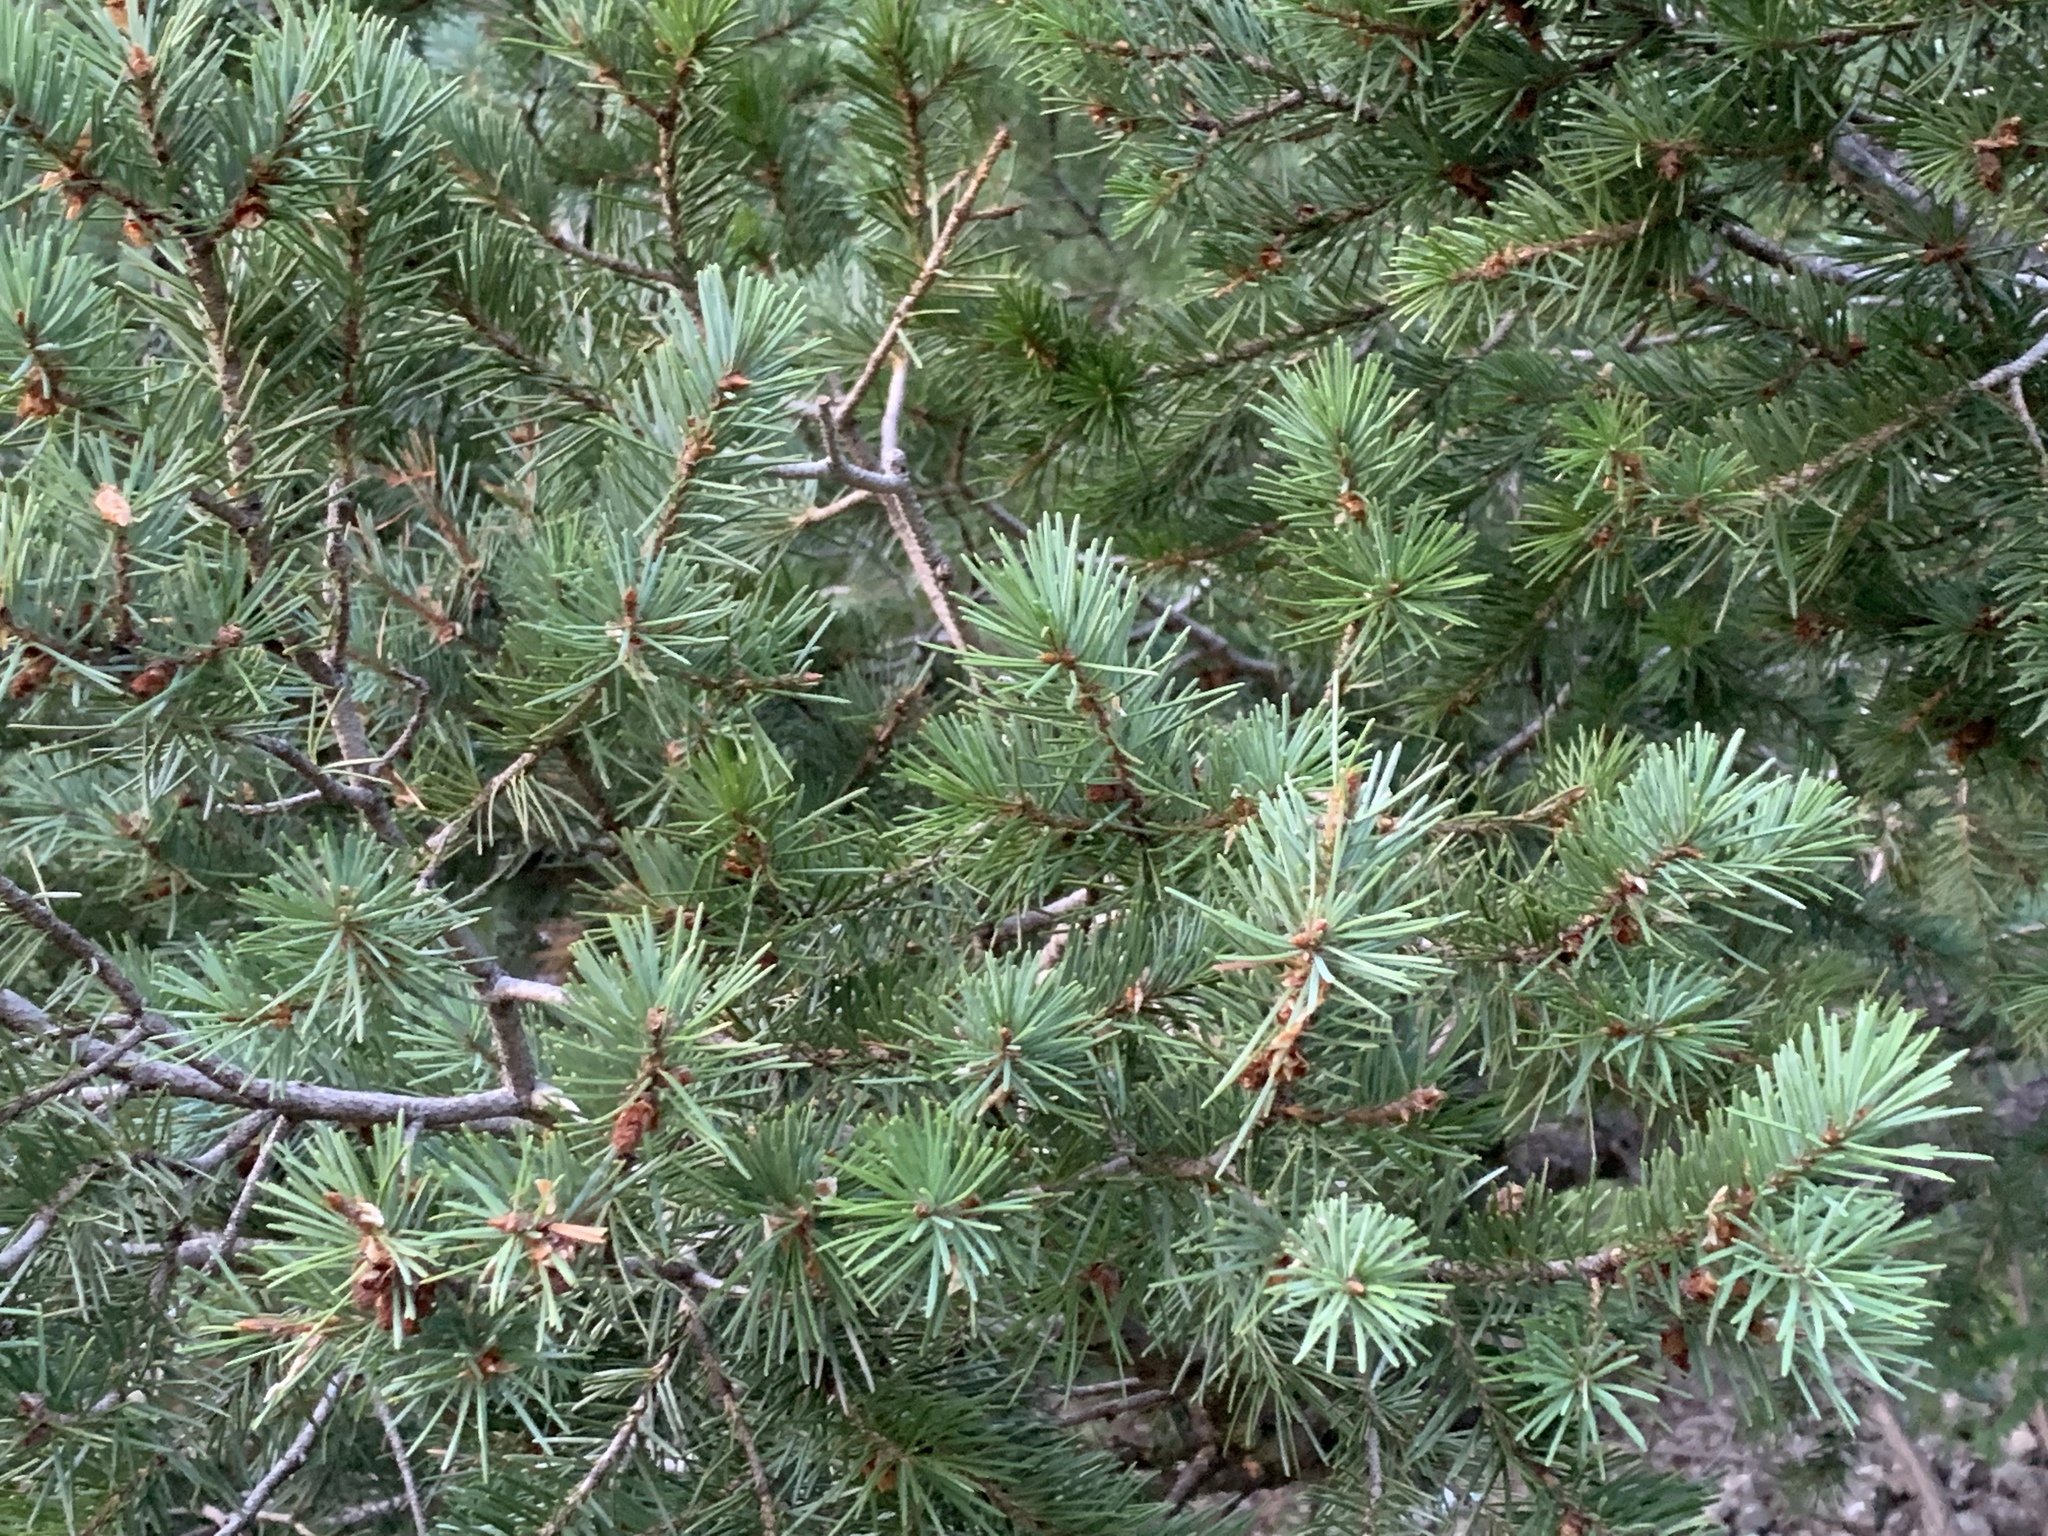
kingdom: Plantae
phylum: Tracheophyta
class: Pinopsida
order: Pinales
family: Pinaceae
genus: Pseudotsuga
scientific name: Pseudotsuga menziesii
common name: Douglas fir
